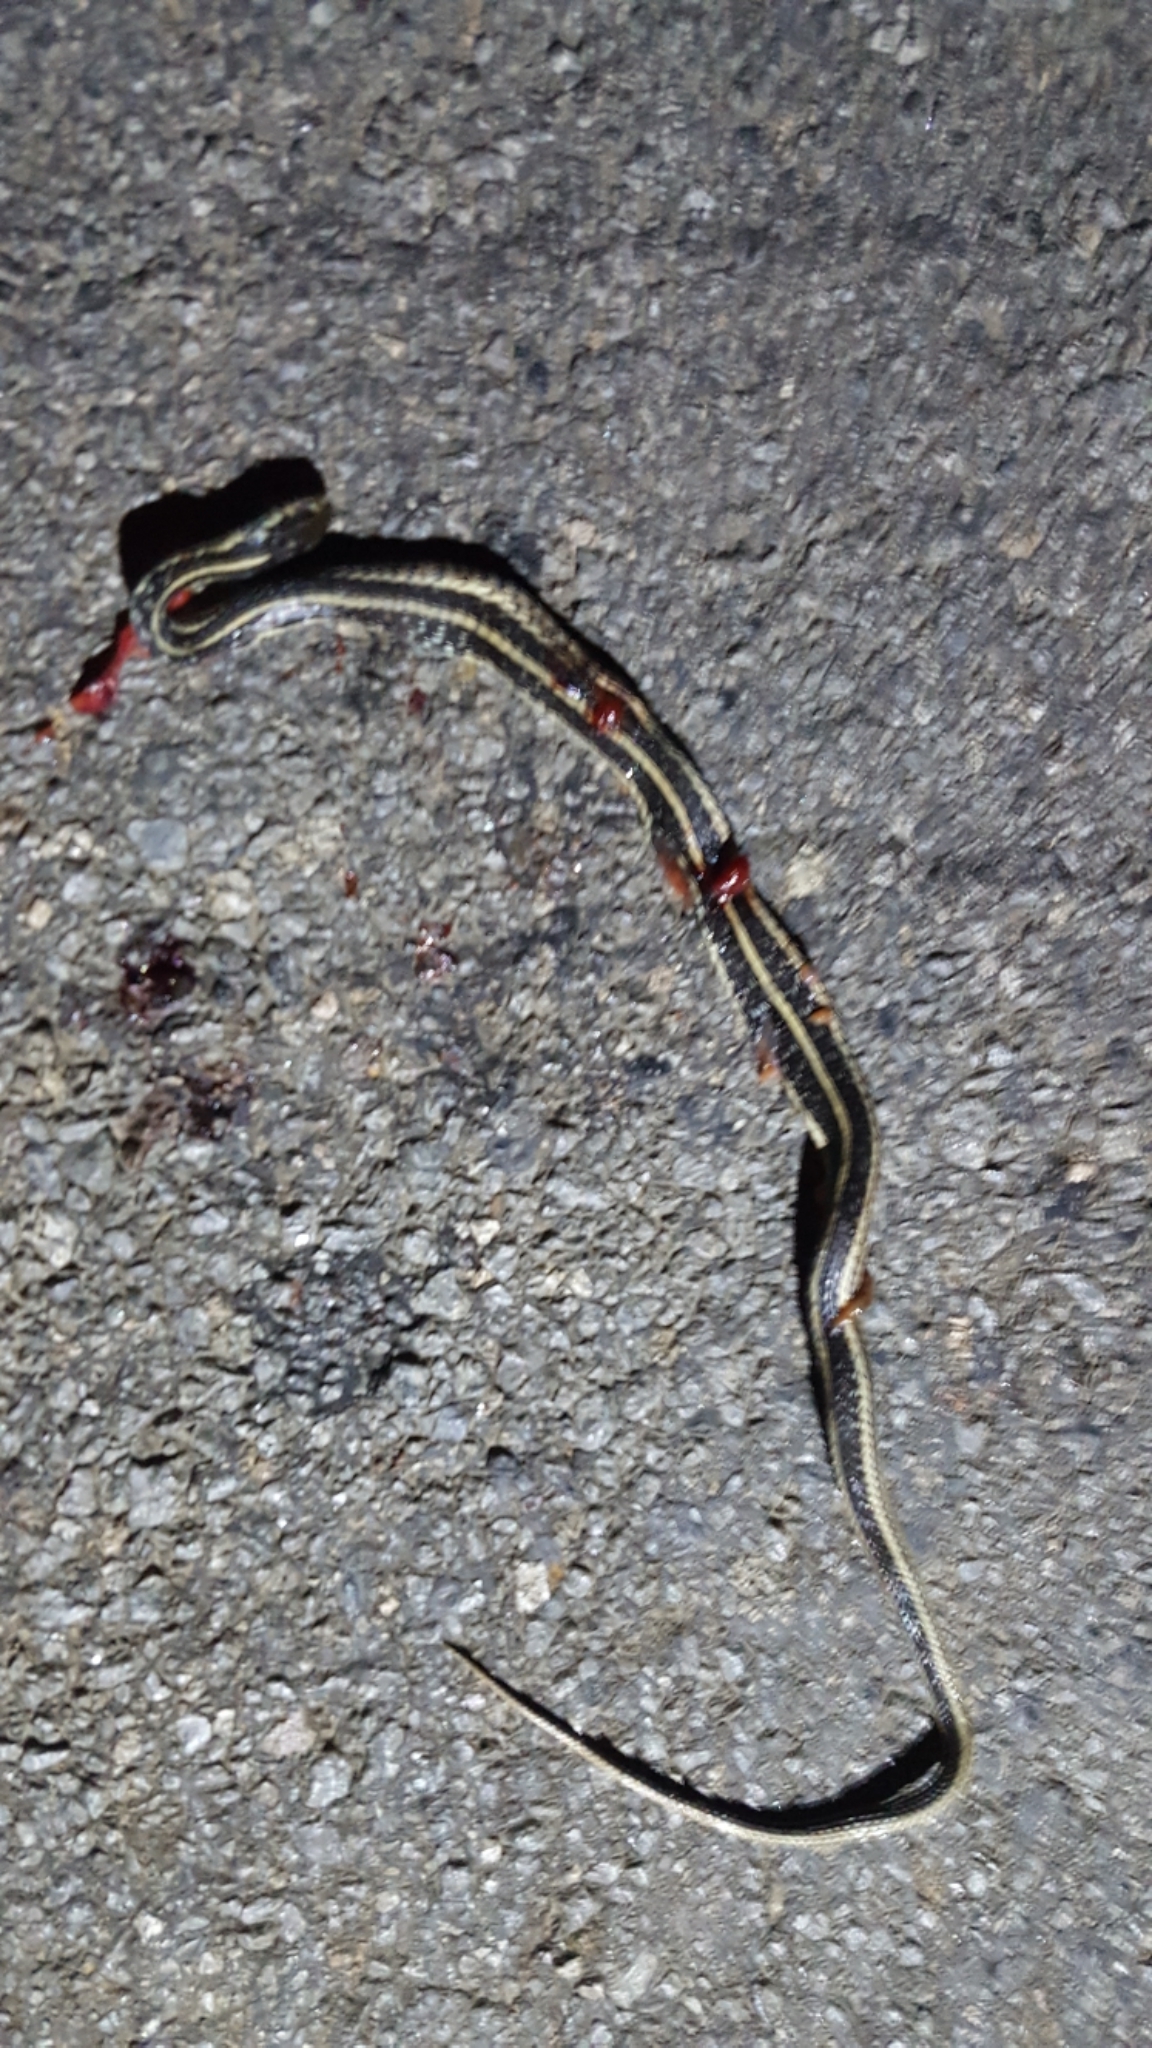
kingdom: Animalia
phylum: Chordata
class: Squamata
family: Colubridae
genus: Thamnophis
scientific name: Thamnophis sirtalis
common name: Common garter snake
